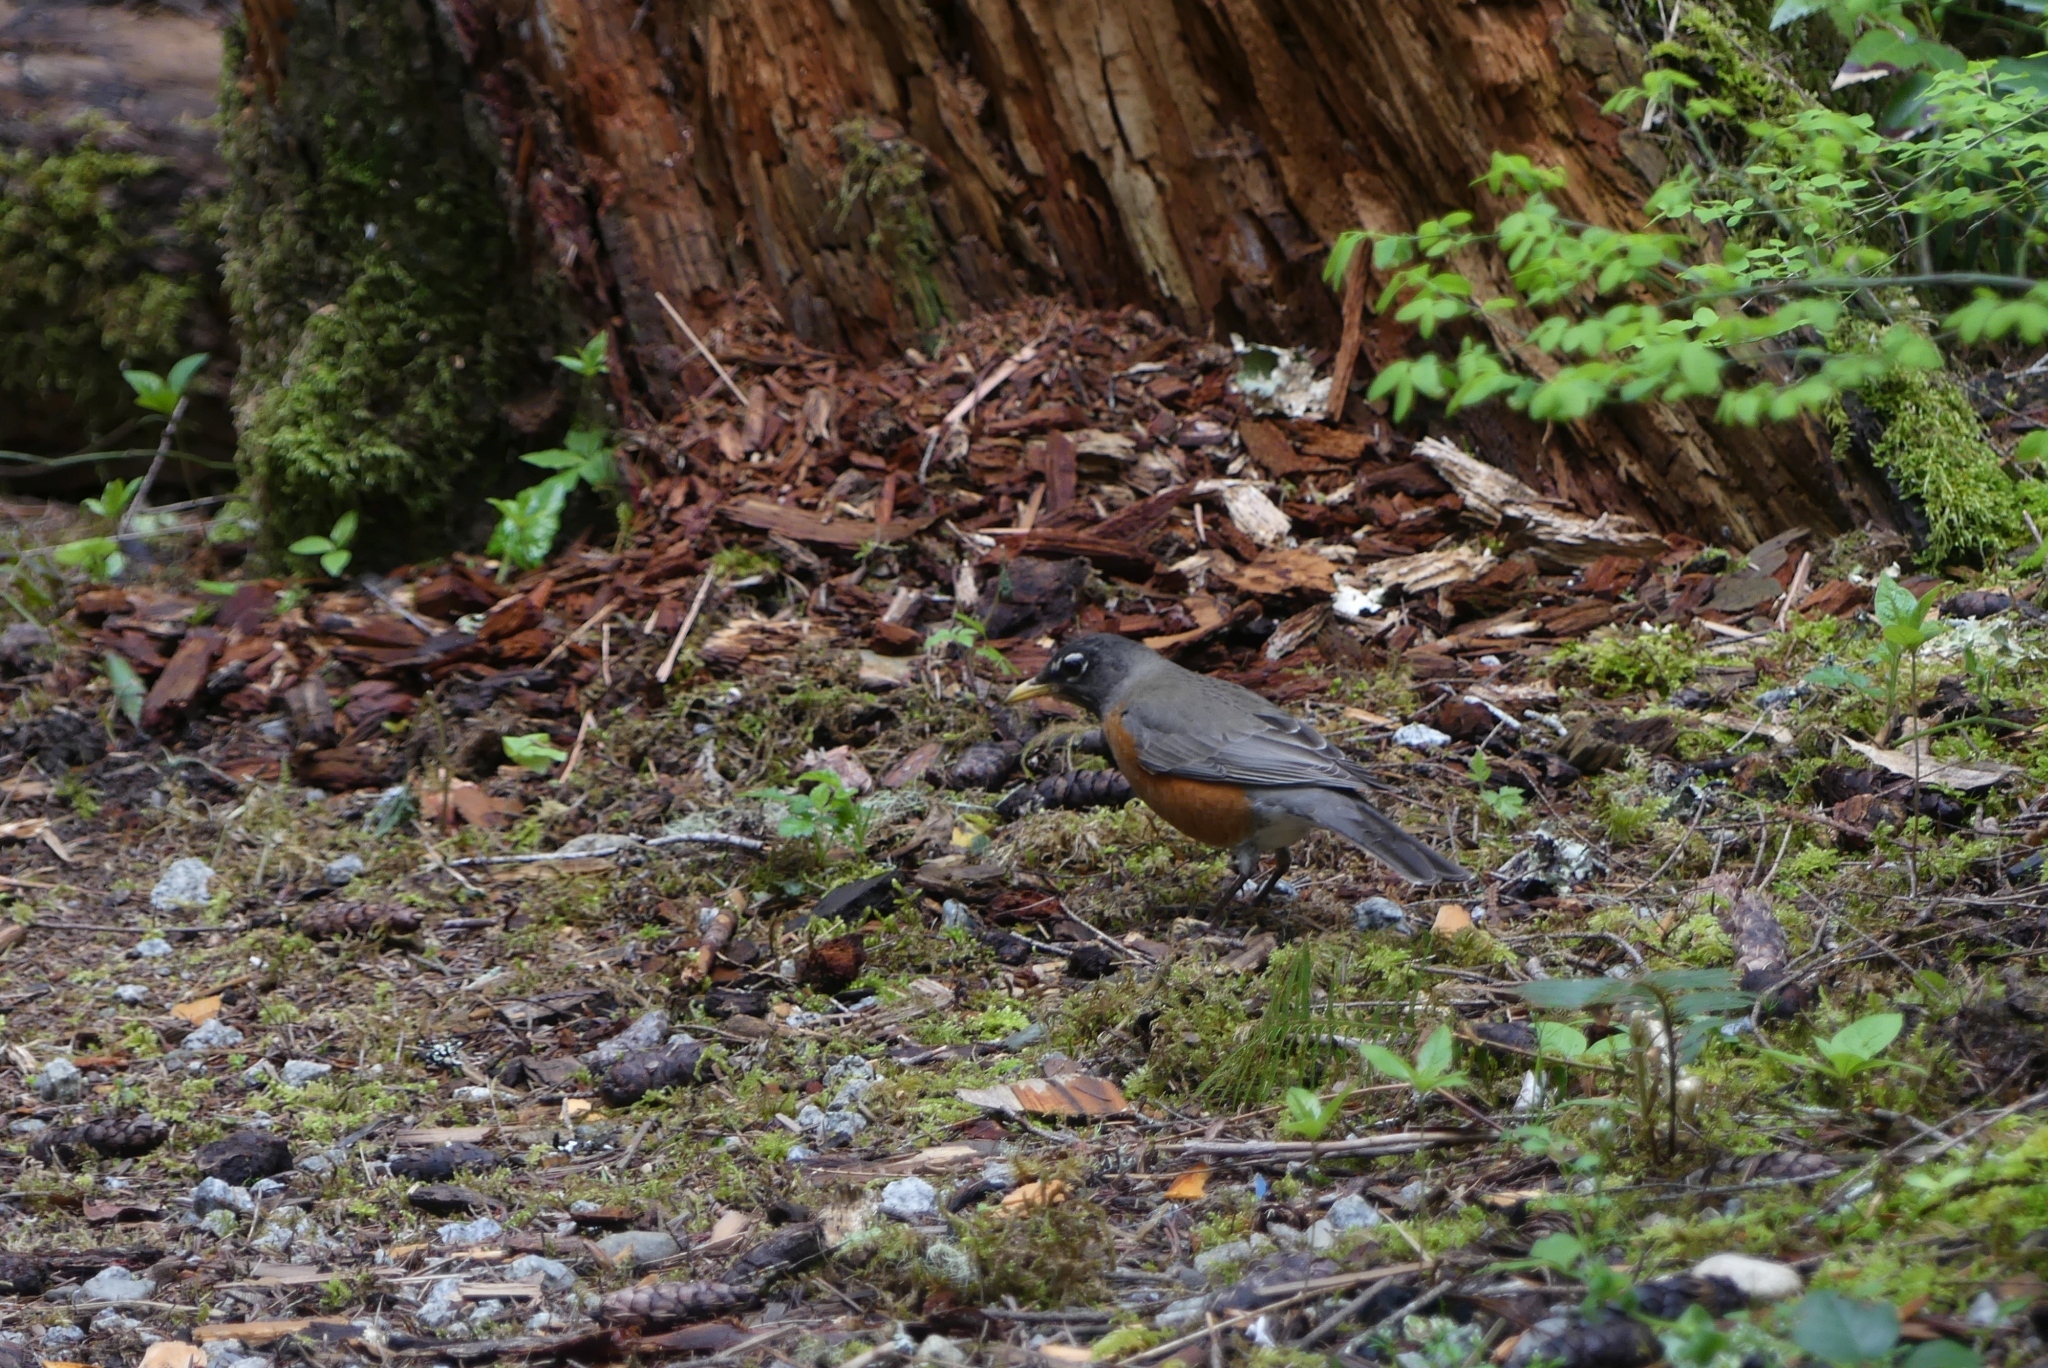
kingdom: Animalia
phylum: Chordata
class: Aves
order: Passeriformes
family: Turdidae
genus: Turdus
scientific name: Turdus migratorius
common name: American robin
